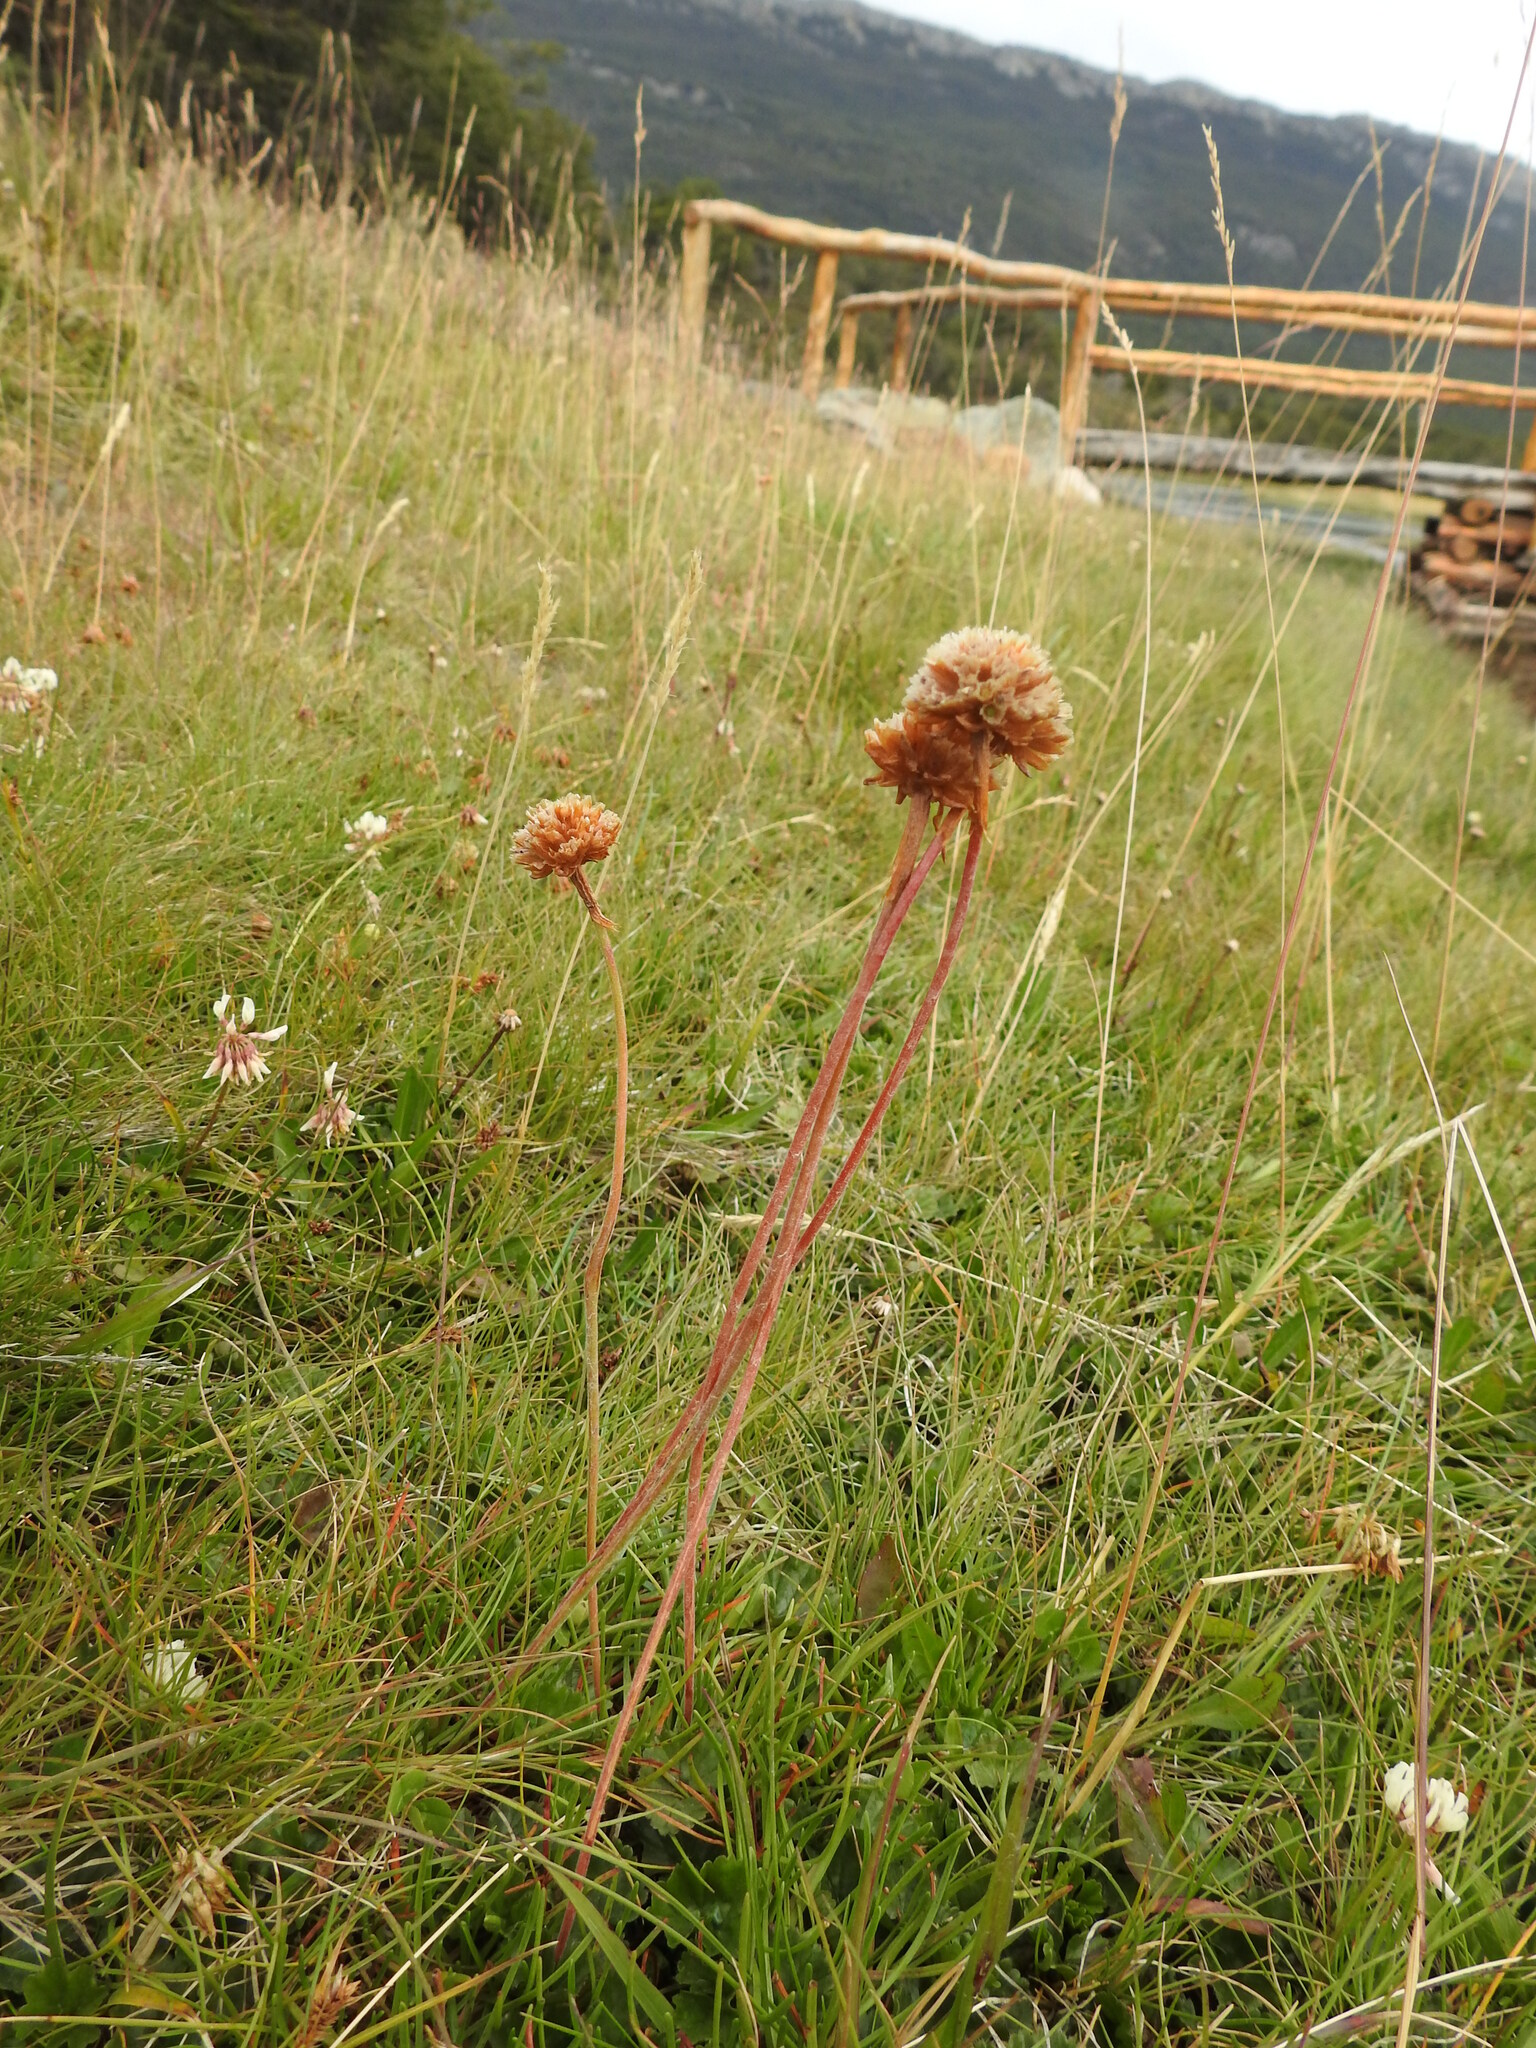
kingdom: Plantae
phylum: Tracheophyta
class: Magnoliopsida
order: Caryophyllales
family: Plumbaginaceae
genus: Armeria
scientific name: Armeria curvifolia
